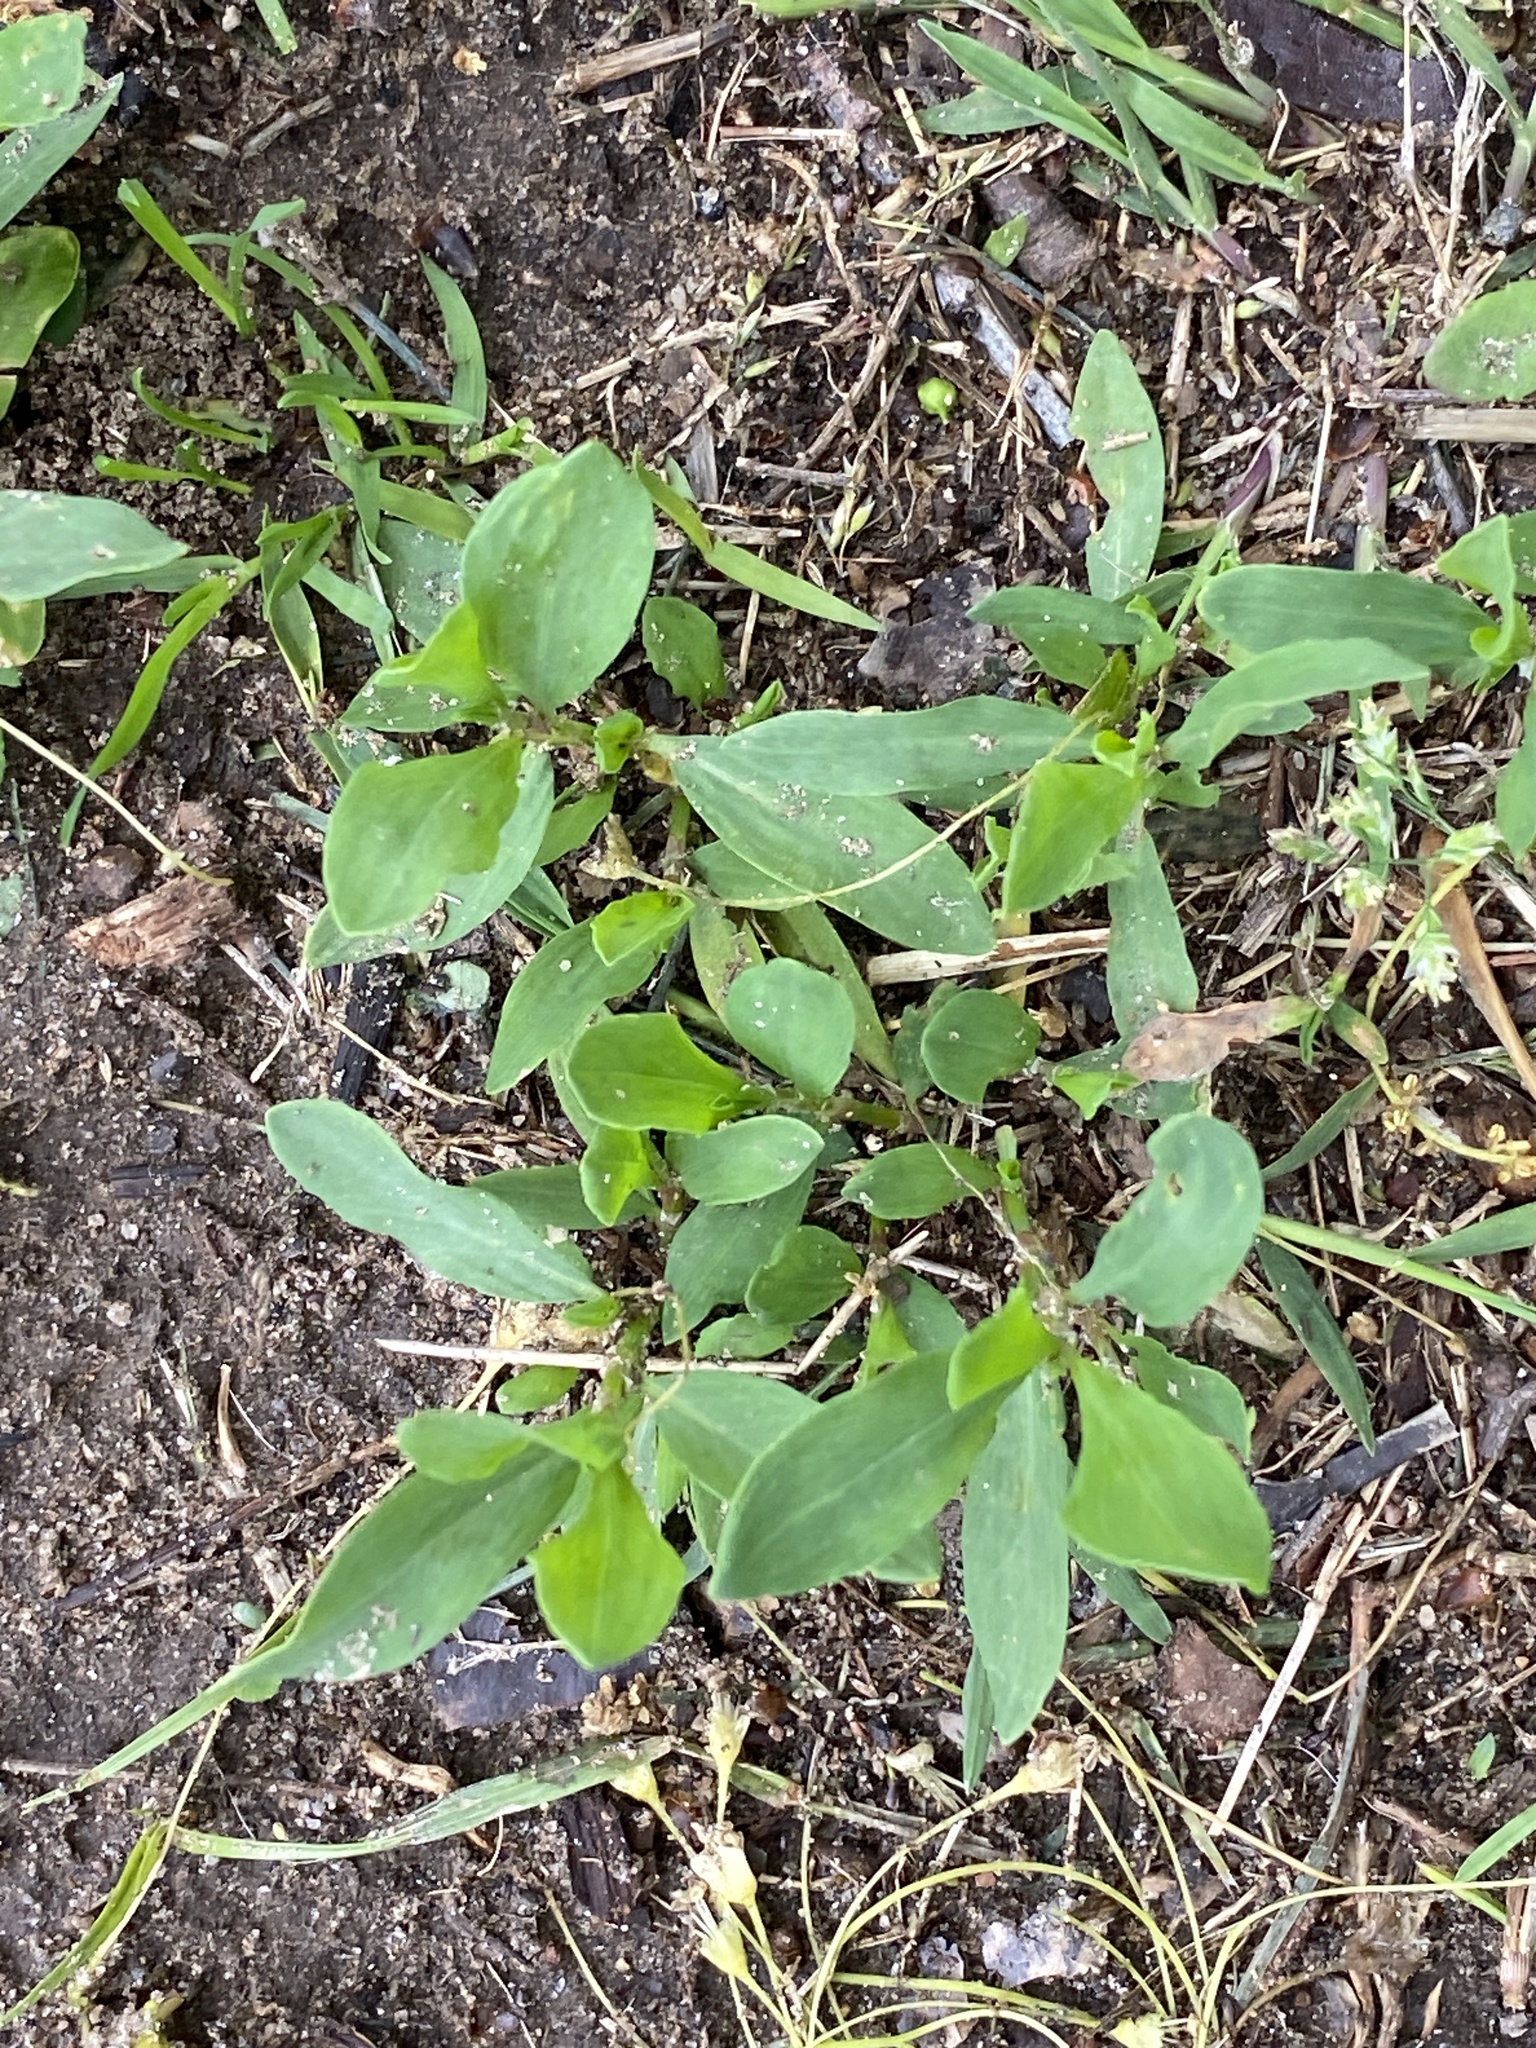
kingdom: Plantae
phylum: Tracheophyta
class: Magnoliopsida
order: Caryophyllales
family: Polygonaceae
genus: Polygonum
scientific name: Polygonum aviculare
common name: Prostrate knotweed
